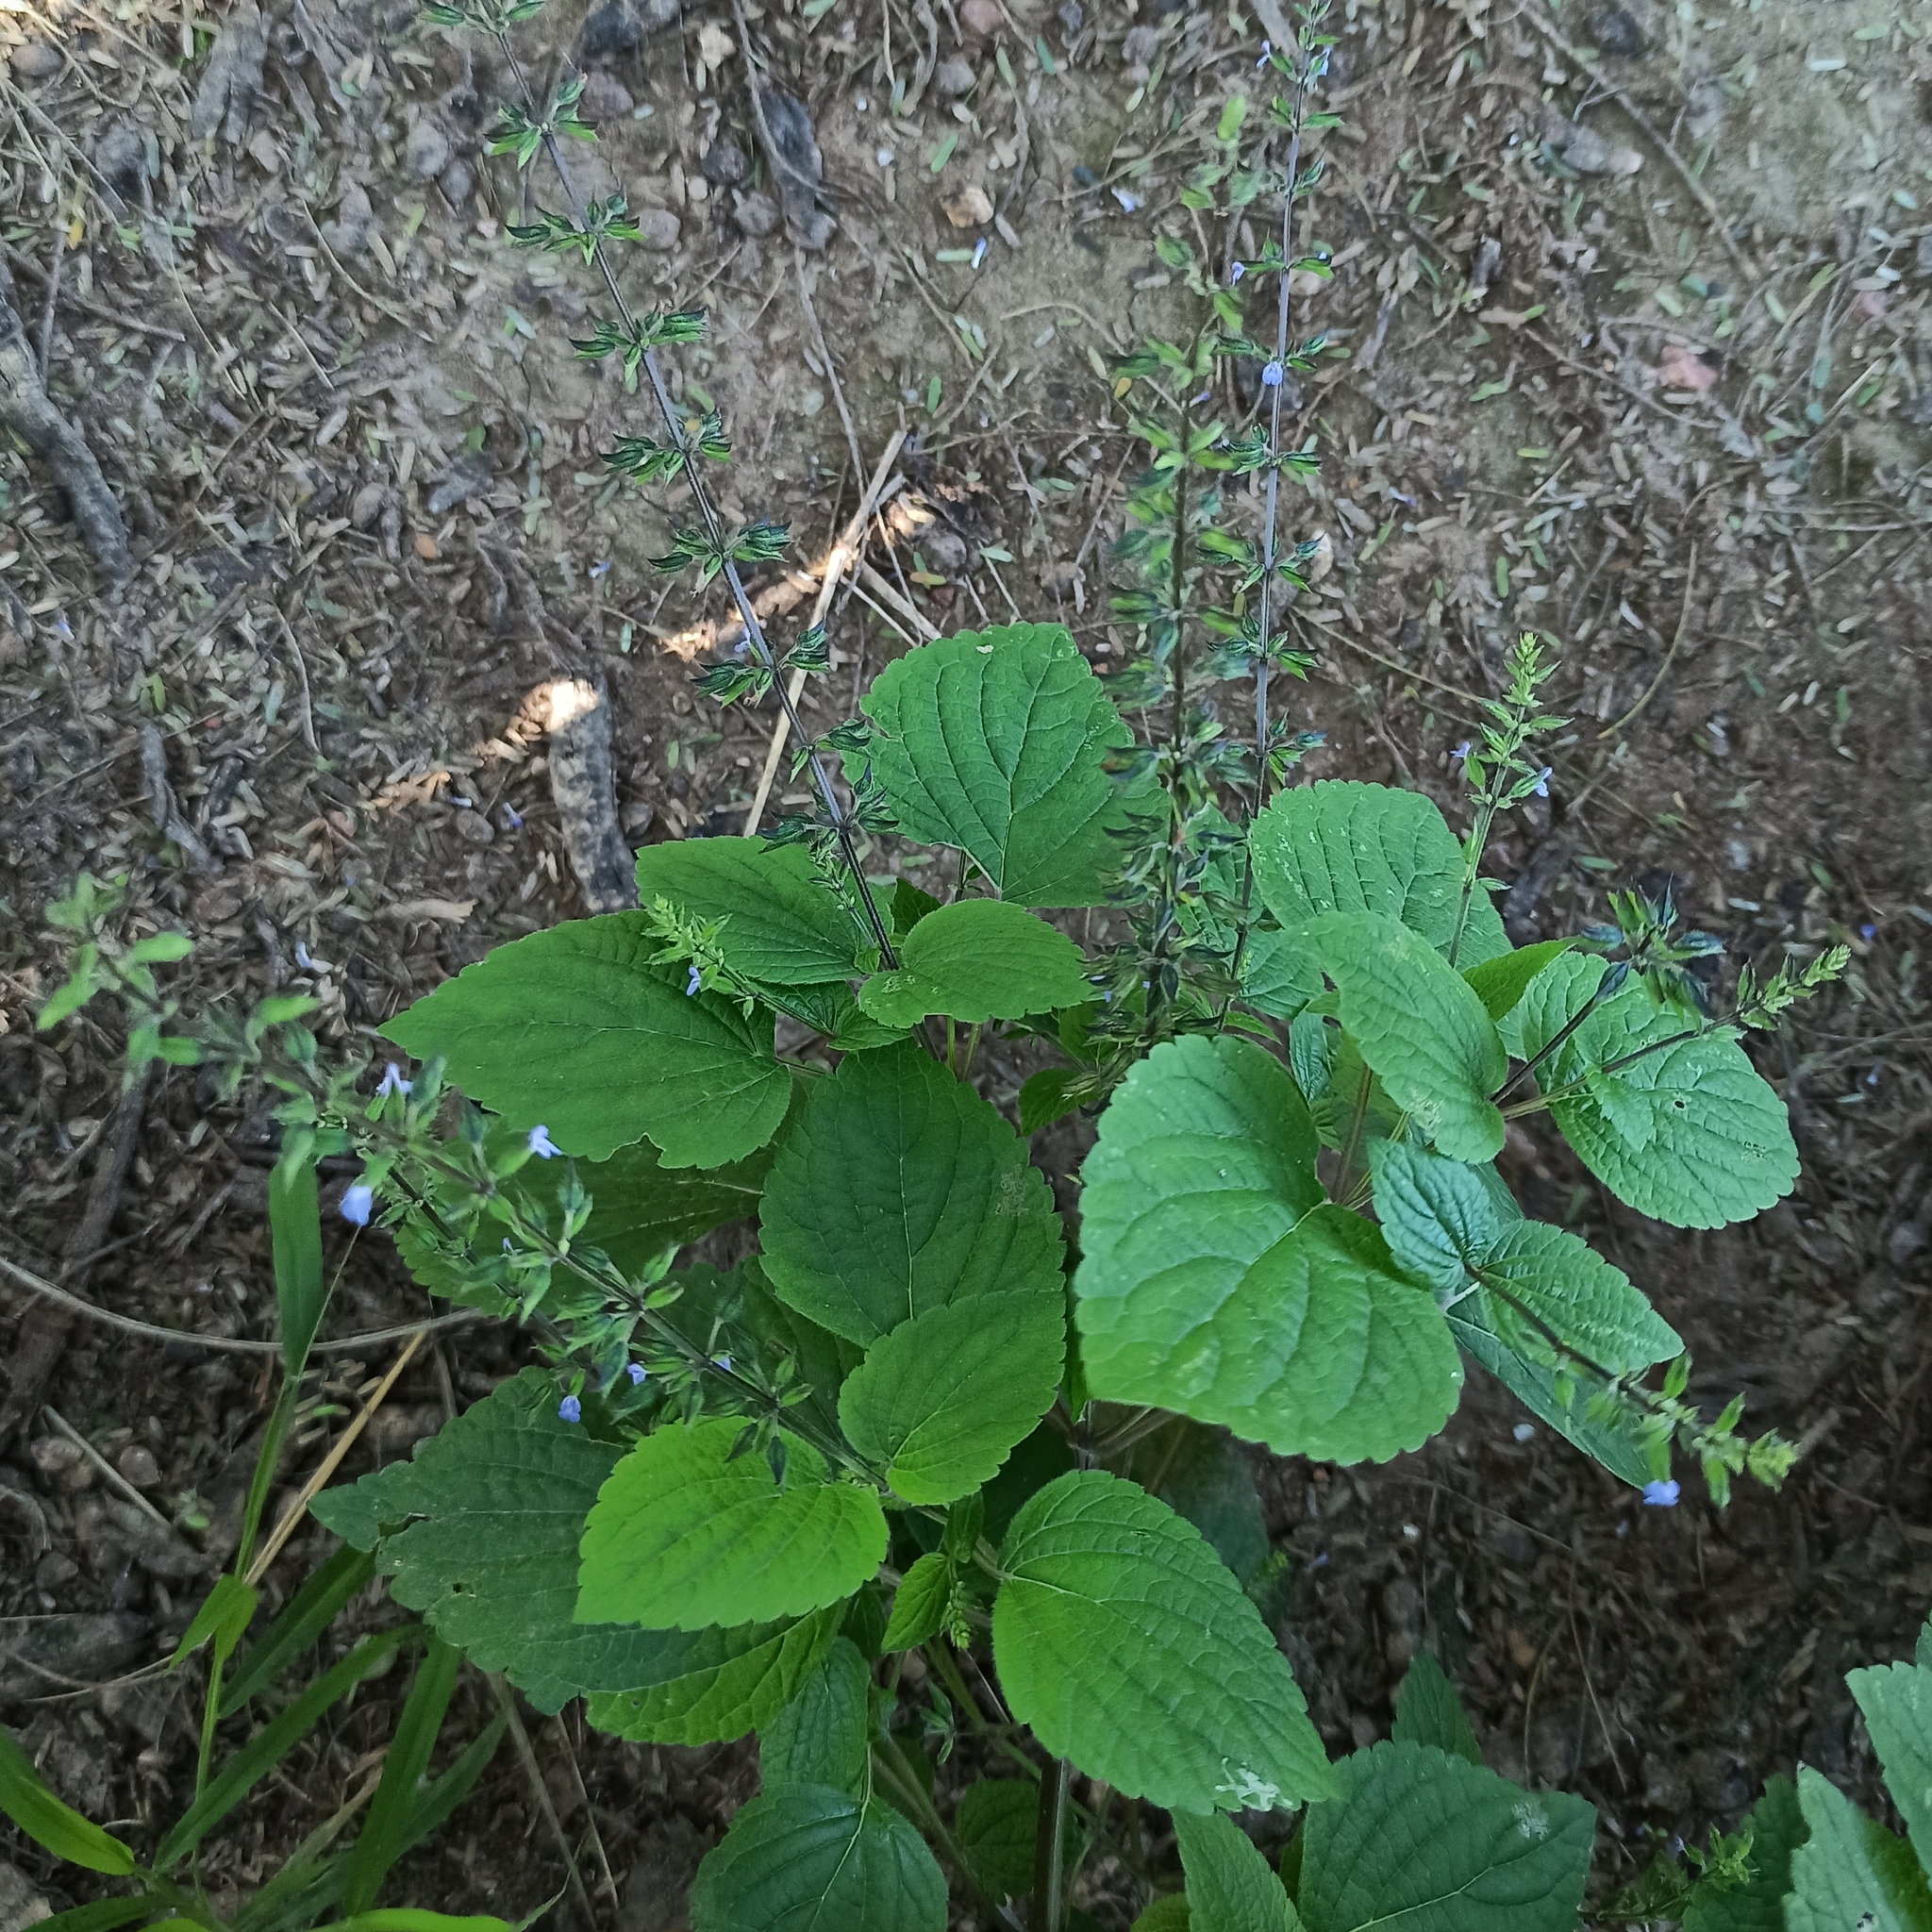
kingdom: Plantae
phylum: Tracheophyta
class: Magnoliopsida
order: Lamiales
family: Lamiaceae
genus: Salvia
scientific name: Salvia tiliifolia
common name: Lindenleaf sage
